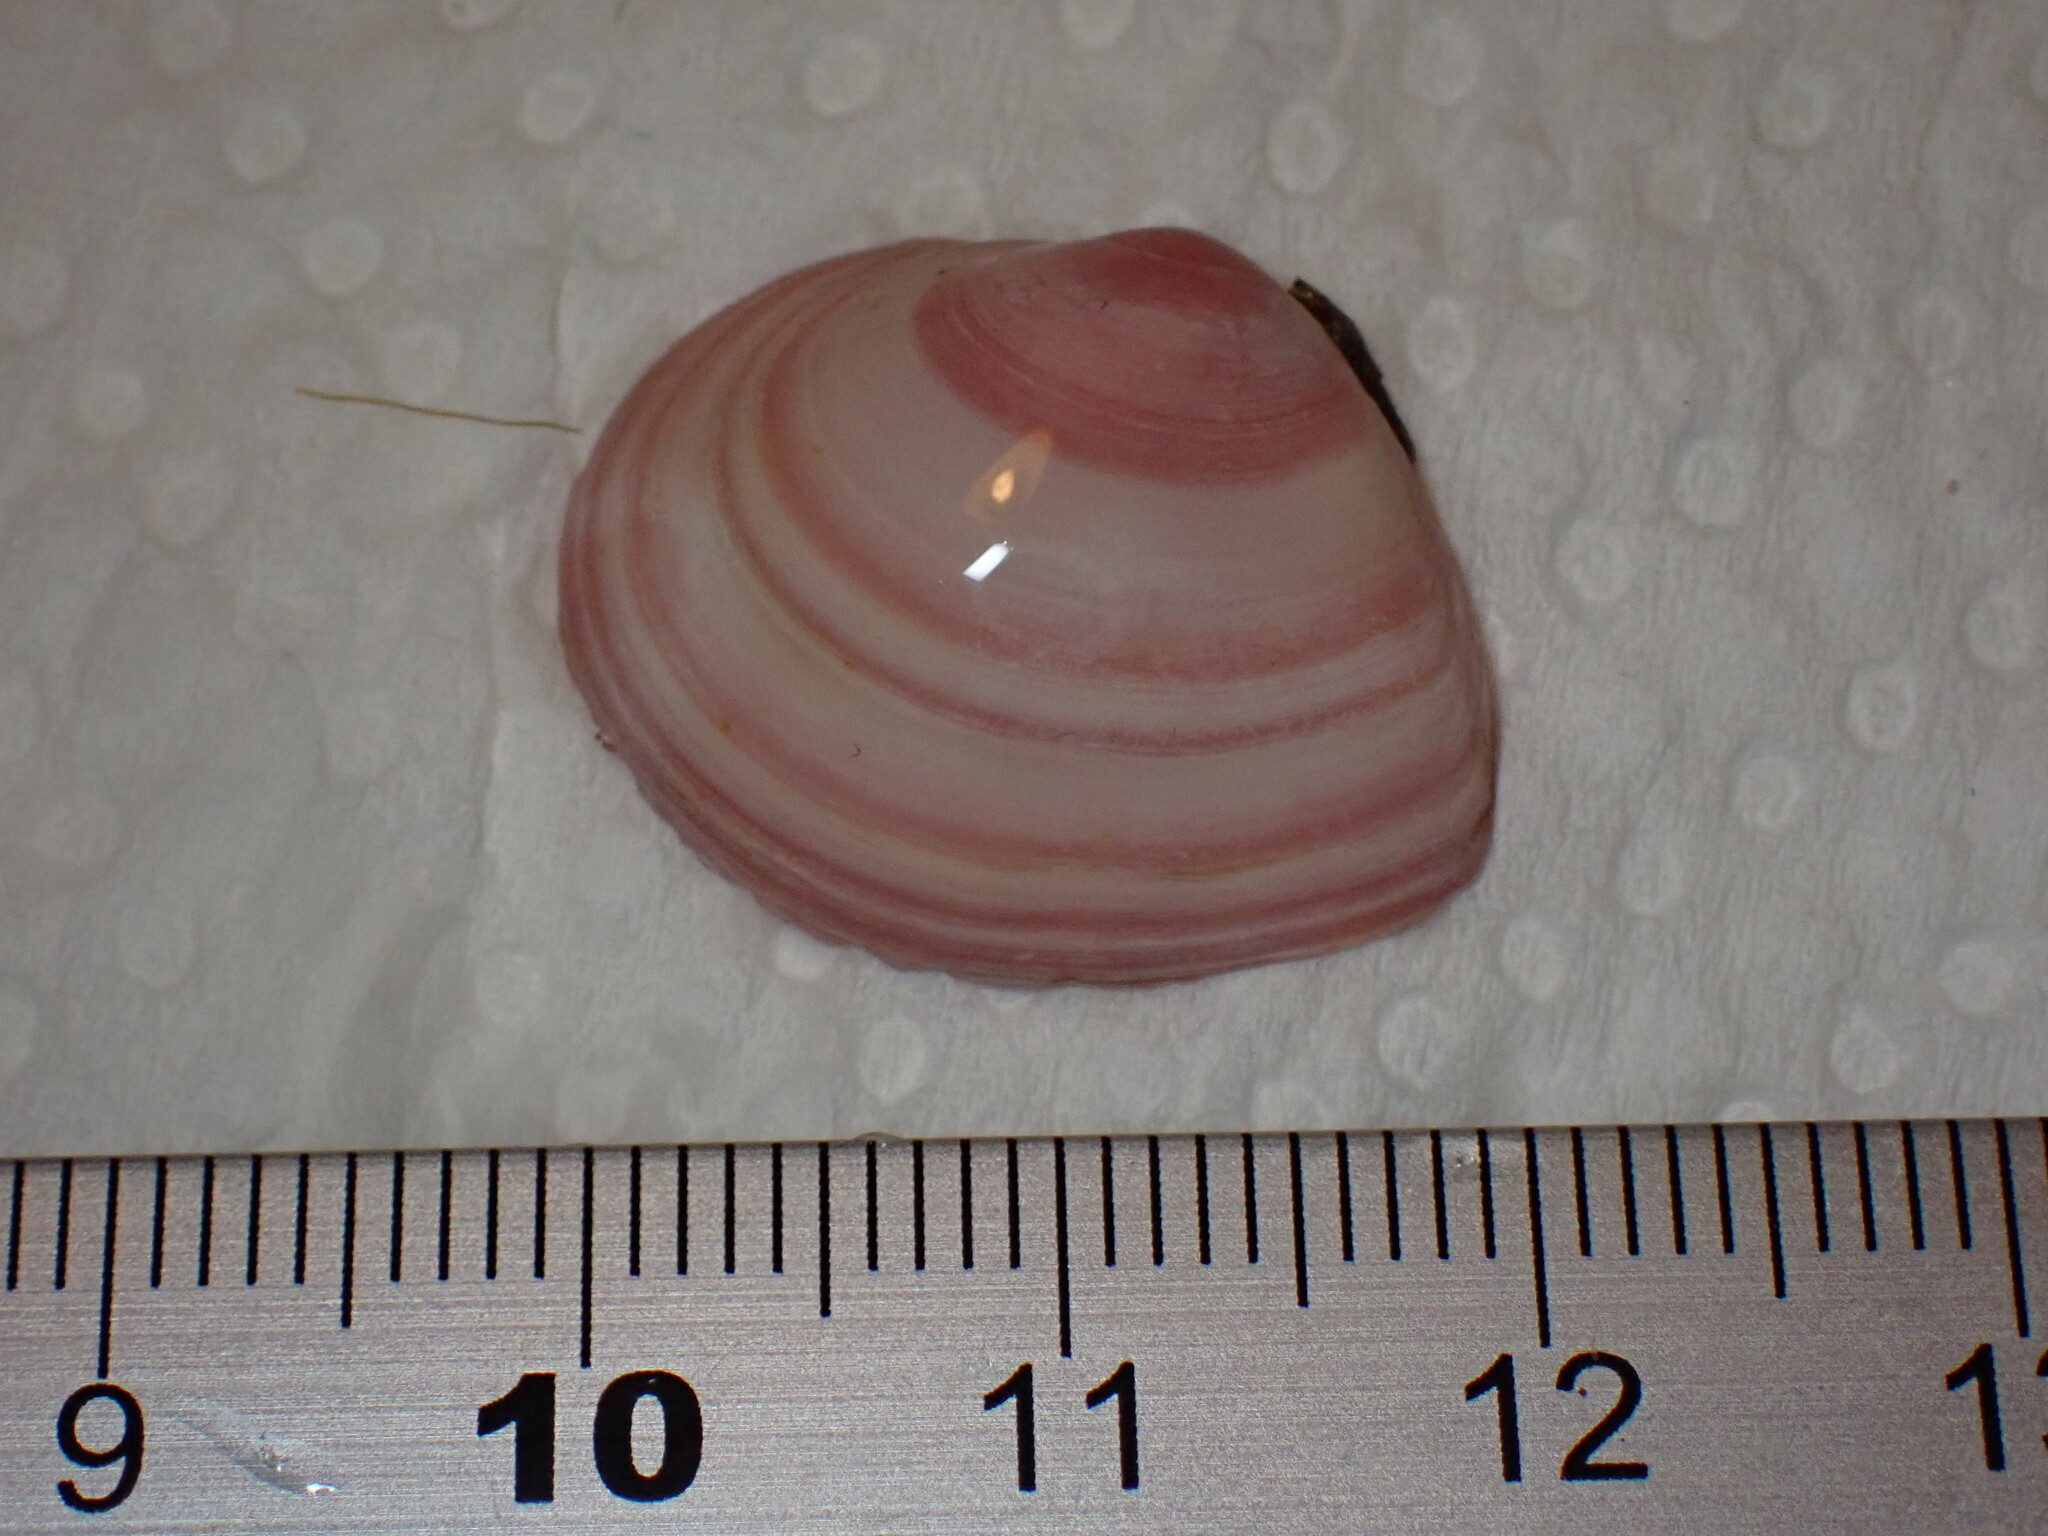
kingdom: Animalia
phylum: Mollusca
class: Bivalvia
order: Cardiida
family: Tellinidae
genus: Macoma
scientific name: Macoma balthica
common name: Baltic tellin
